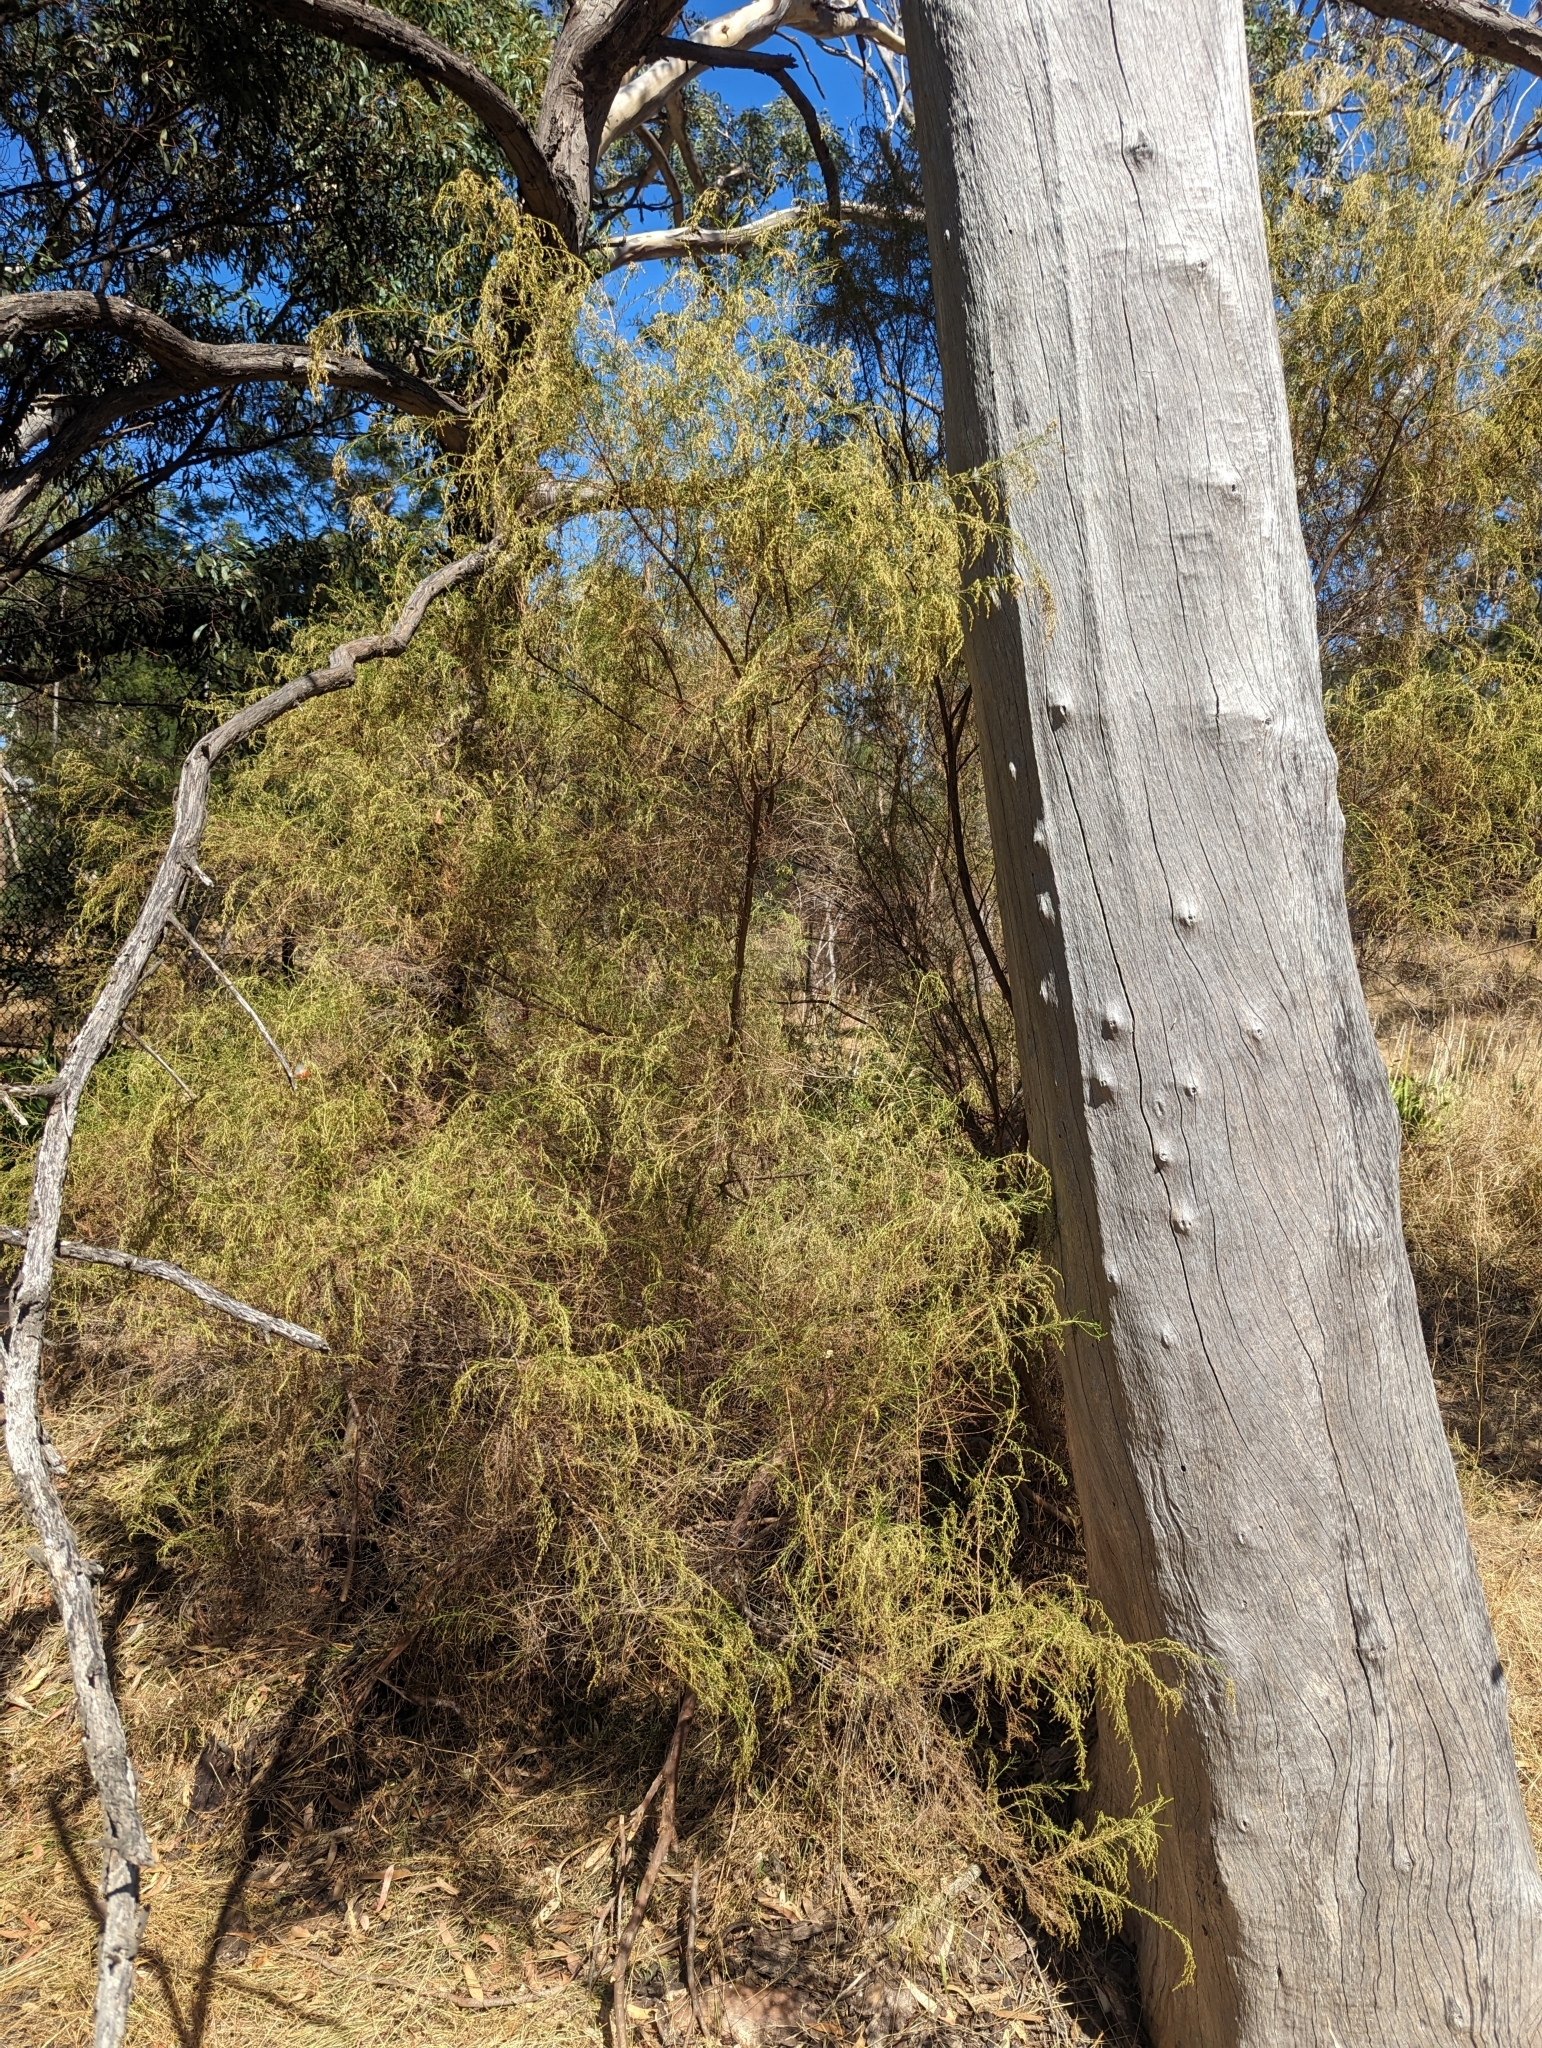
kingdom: Plantae
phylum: Tracheophyta
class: Magnoliopsida
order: Asterales
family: Asteraceae
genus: Cassinia
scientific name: Cassinia sifton
